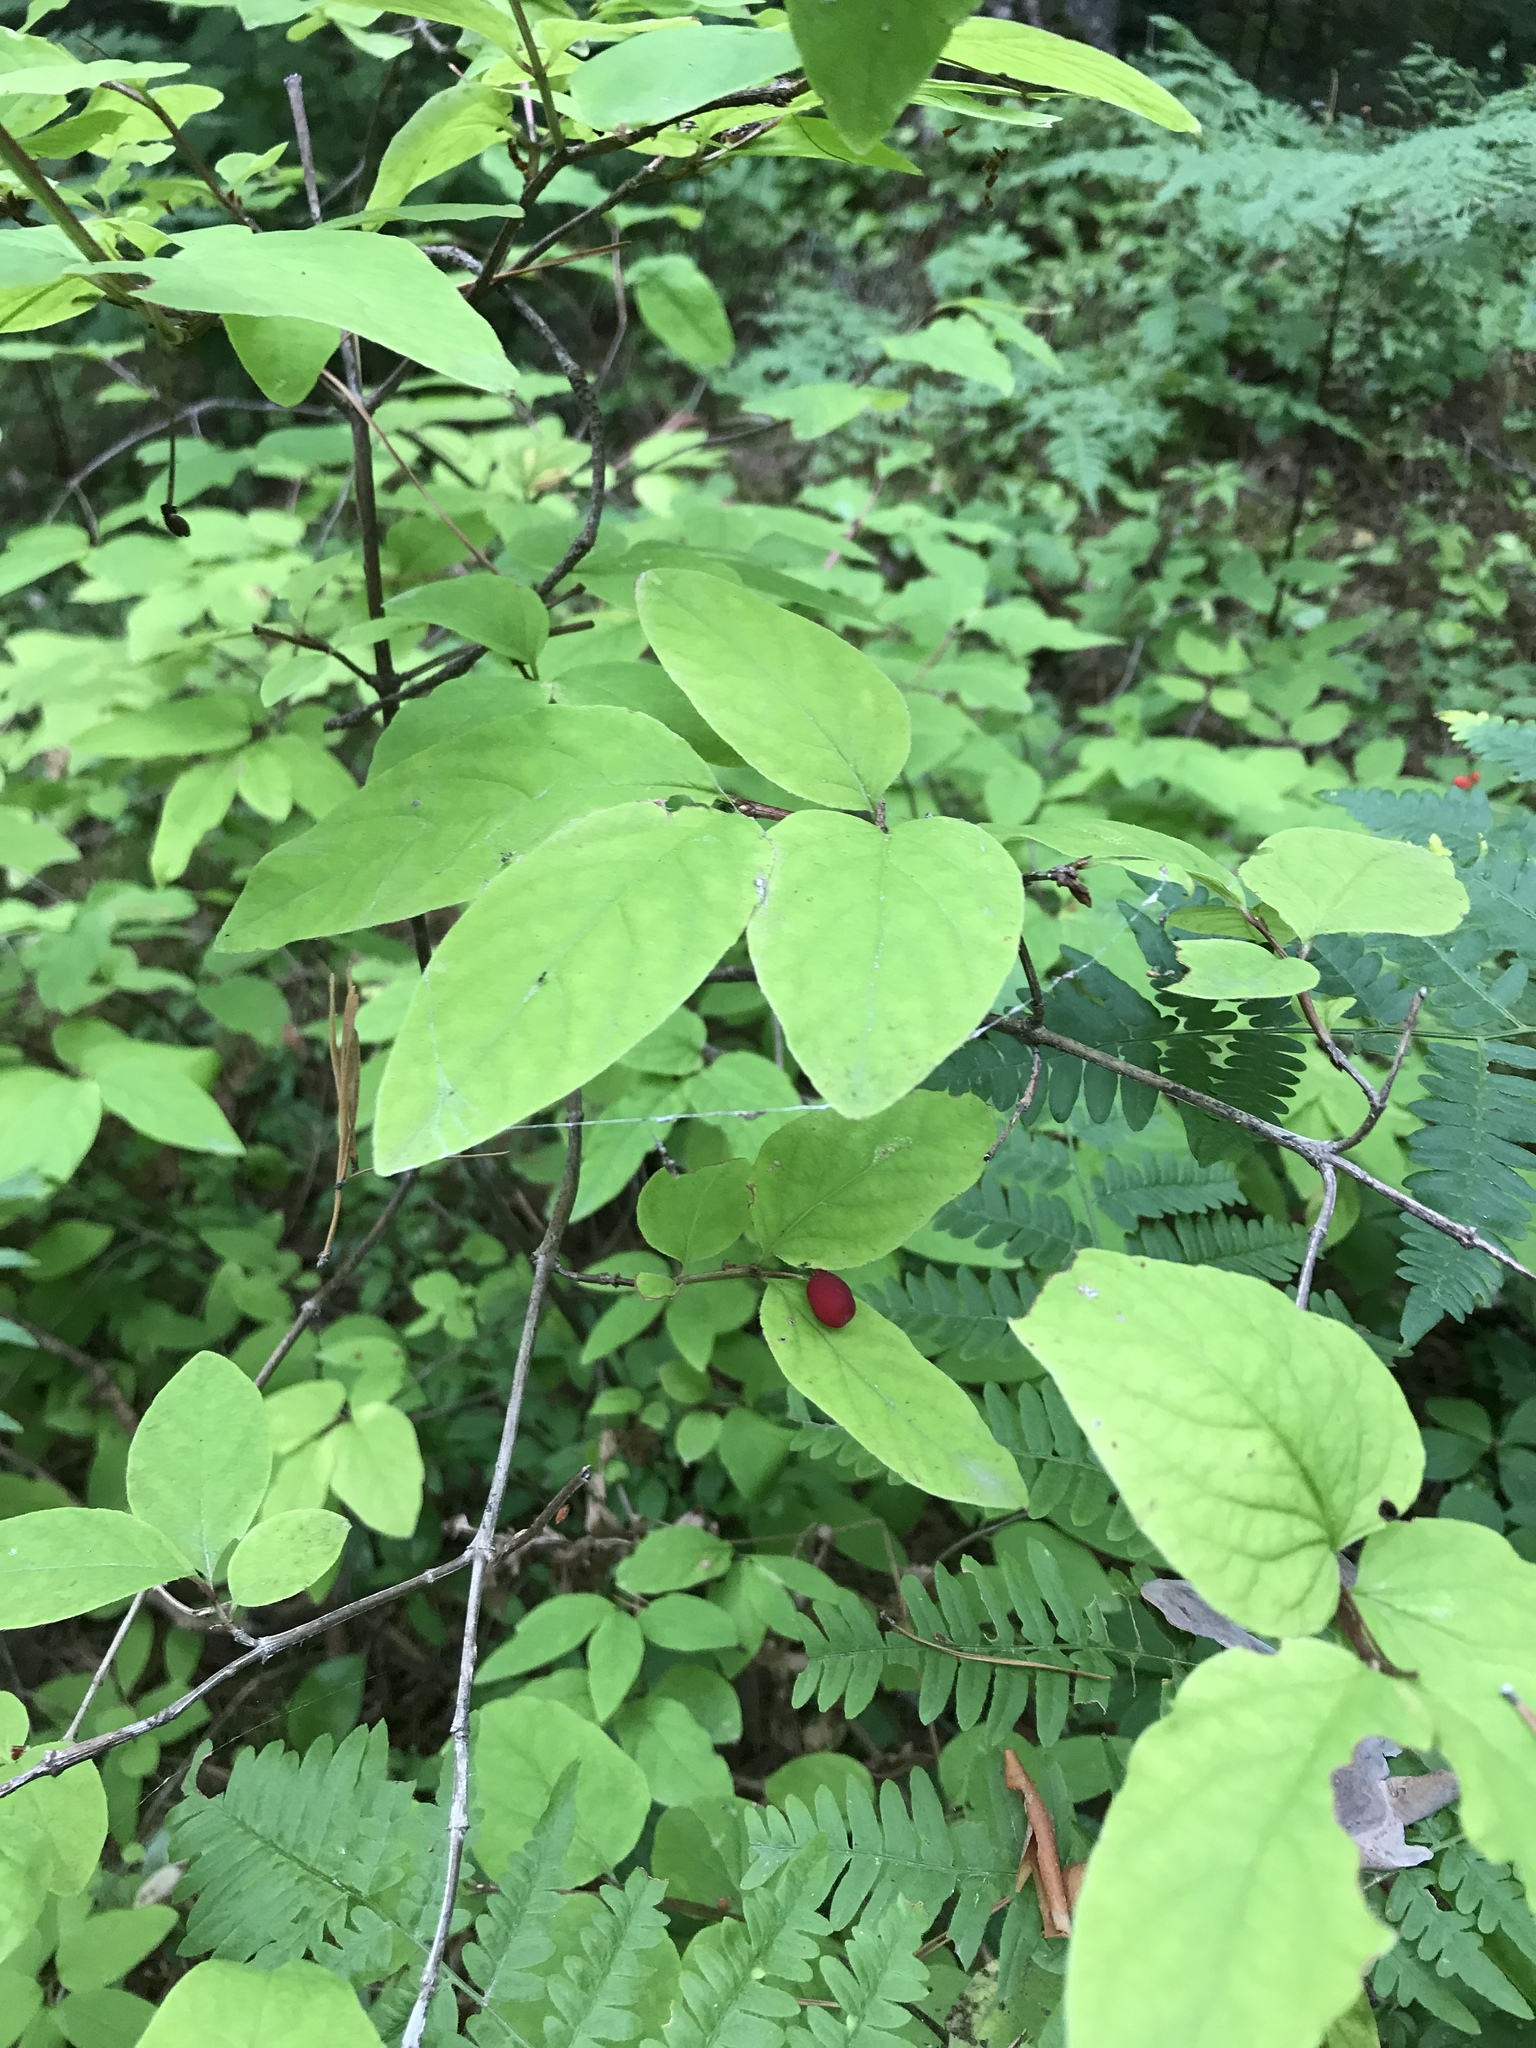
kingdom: Plantae
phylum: Tracheophyta
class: Magnoliopsida
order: Dipsacales
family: Caprifoliaceae
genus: Lonicera
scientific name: Lonicera canadensis
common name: American fly-honeysuckle
